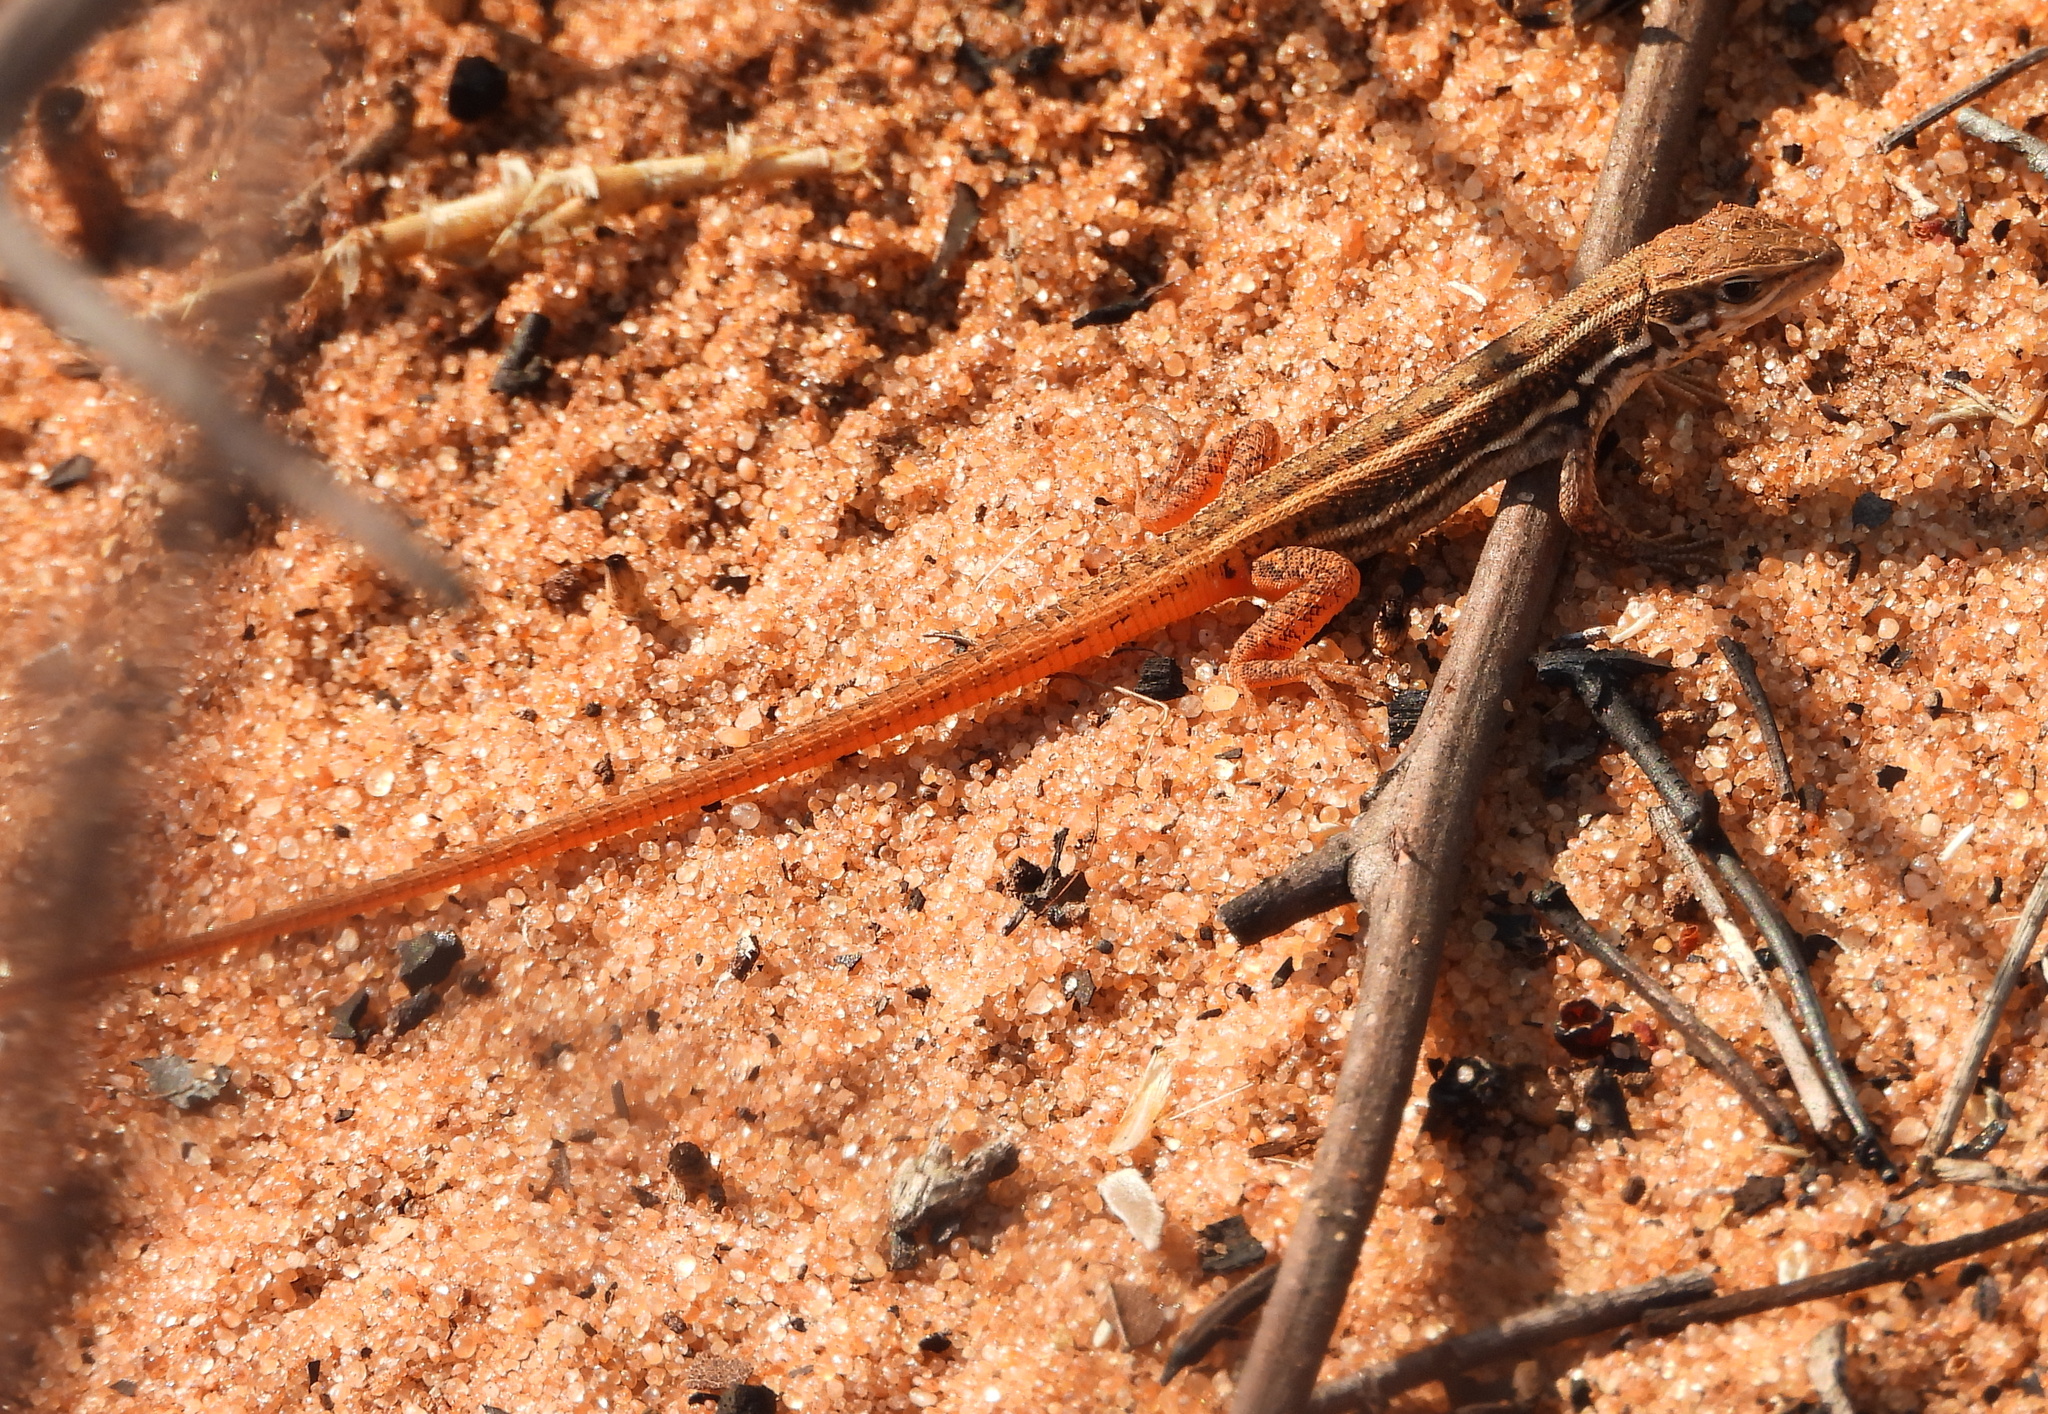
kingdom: Animalia
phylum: Chordata
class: Squamata
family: Lacertidae
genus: Meroles
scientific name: Meroles squamulosus
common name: Common desert lizard
